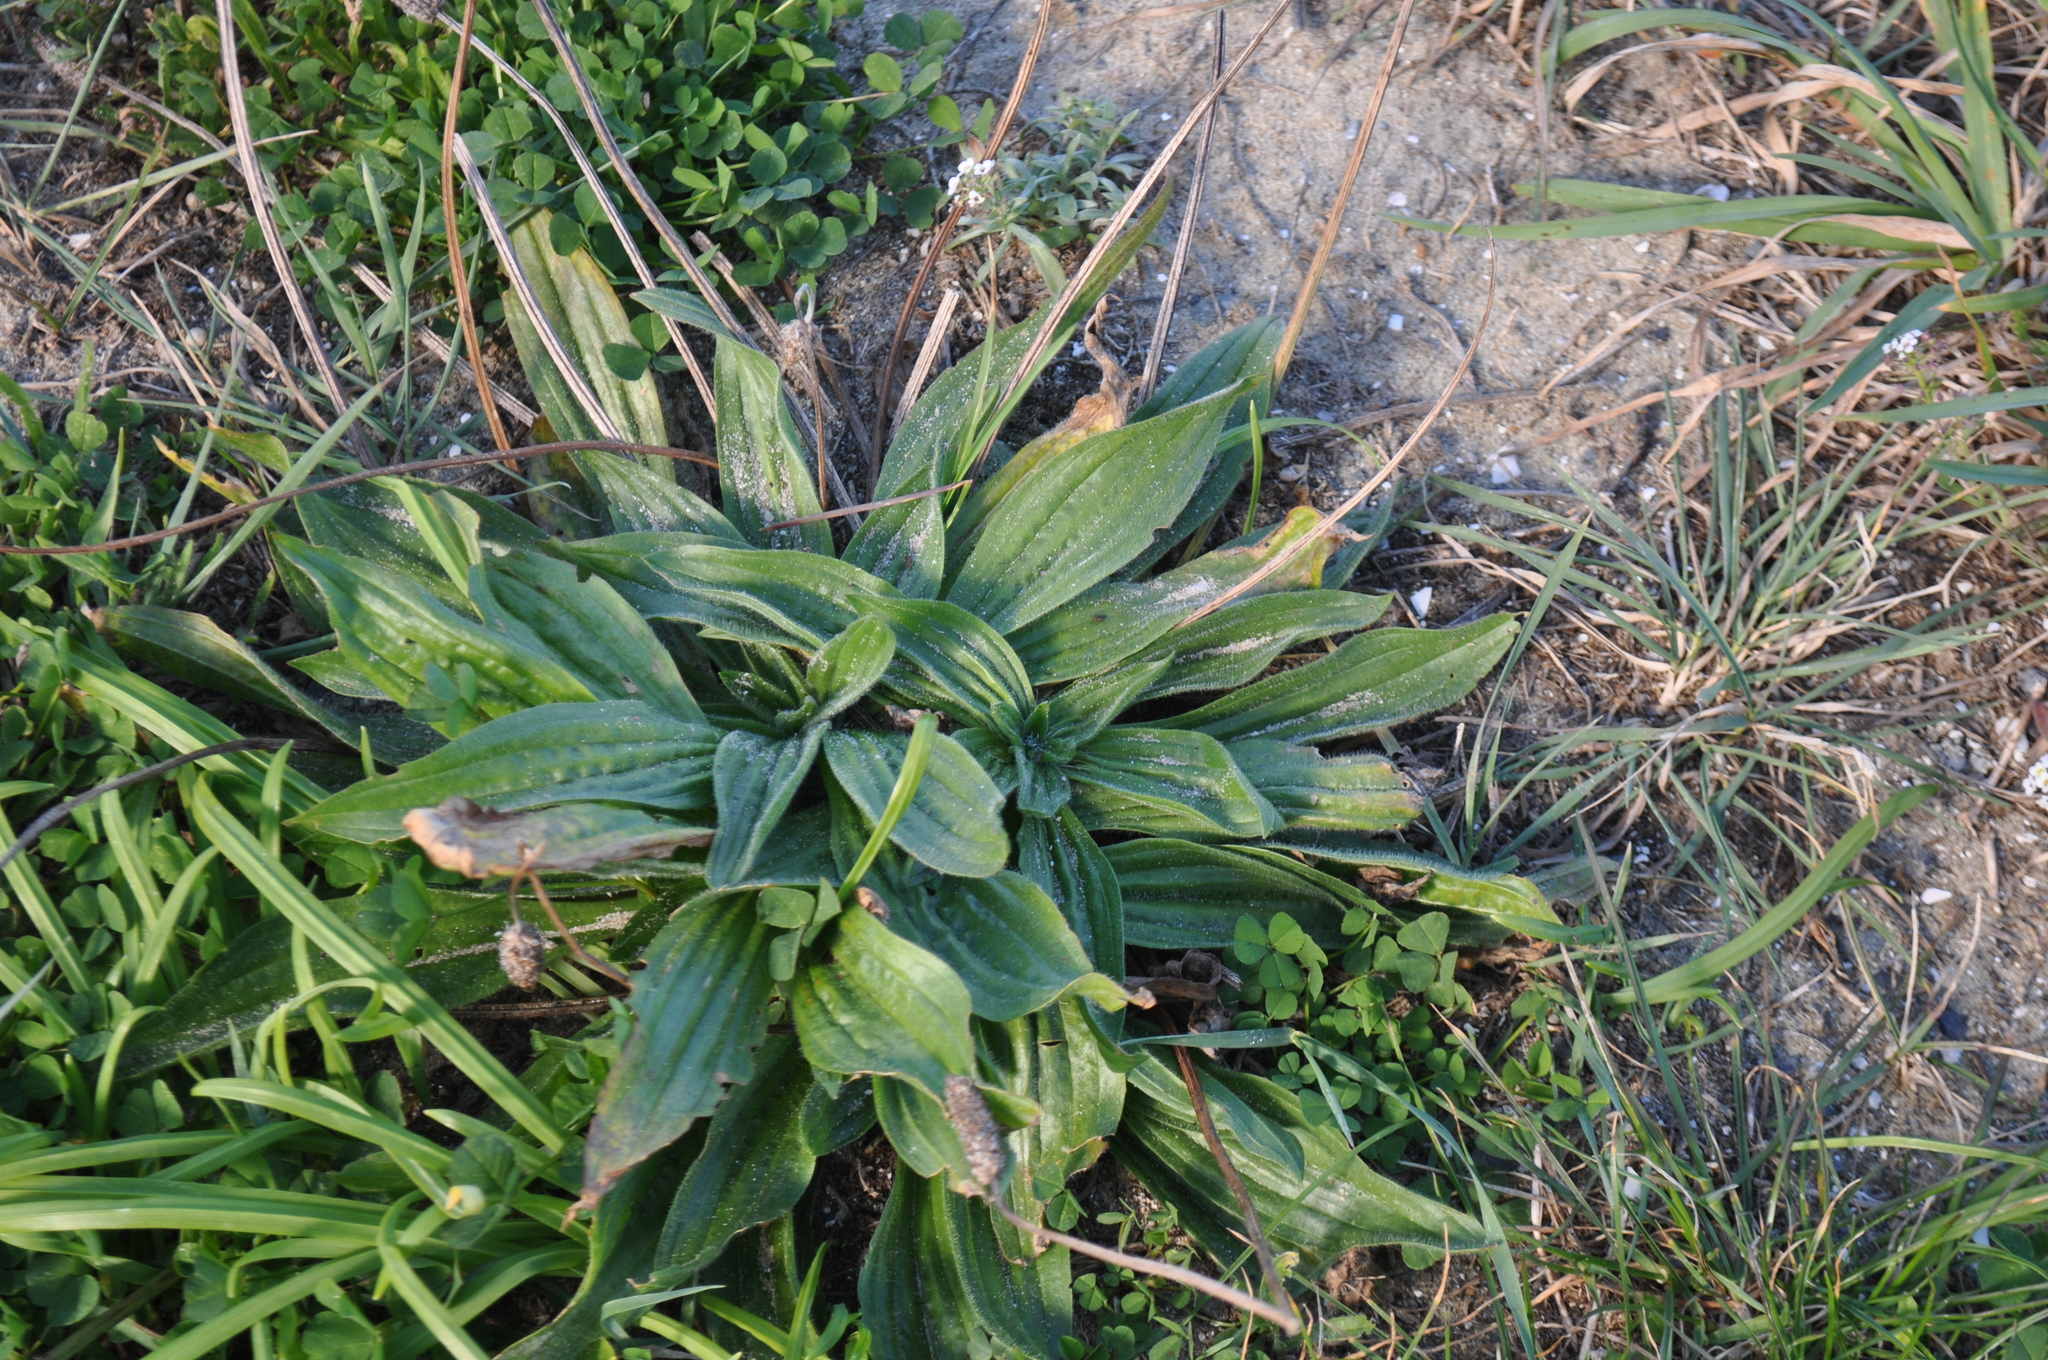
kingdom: Plantae
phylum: Tracheophyta
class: Magnoliopsida
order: Lamiales
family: Plantaginaceae
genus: Plantago
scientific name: Plantago lanceolata
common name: Ribwort plantain
